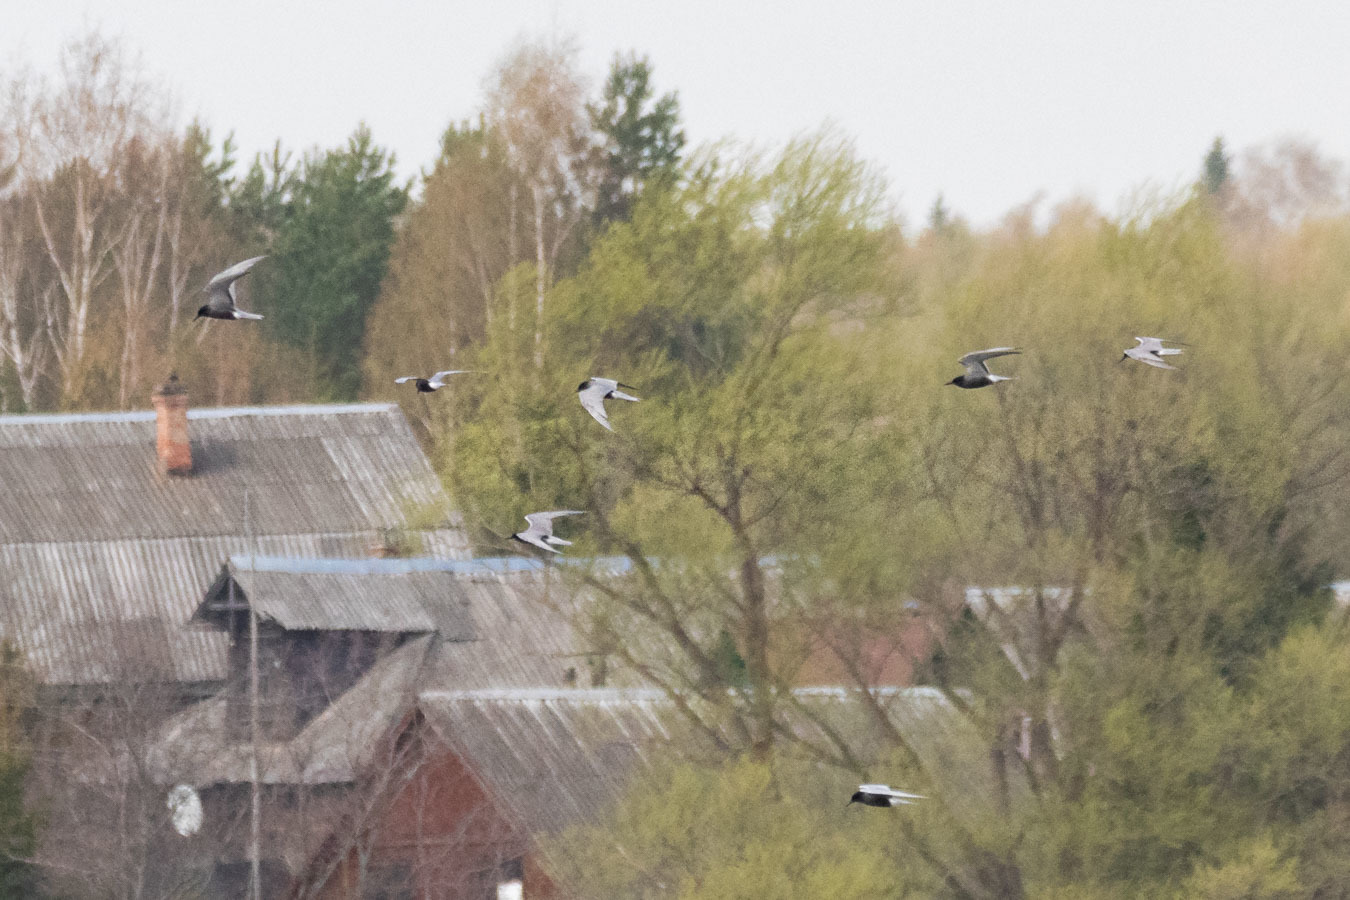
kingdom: Animalia
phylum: Chordata
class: Aves
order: Charadriiformes
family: Laridae
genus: Chlidonias
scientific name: Chlidonias niger
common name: Black tern
